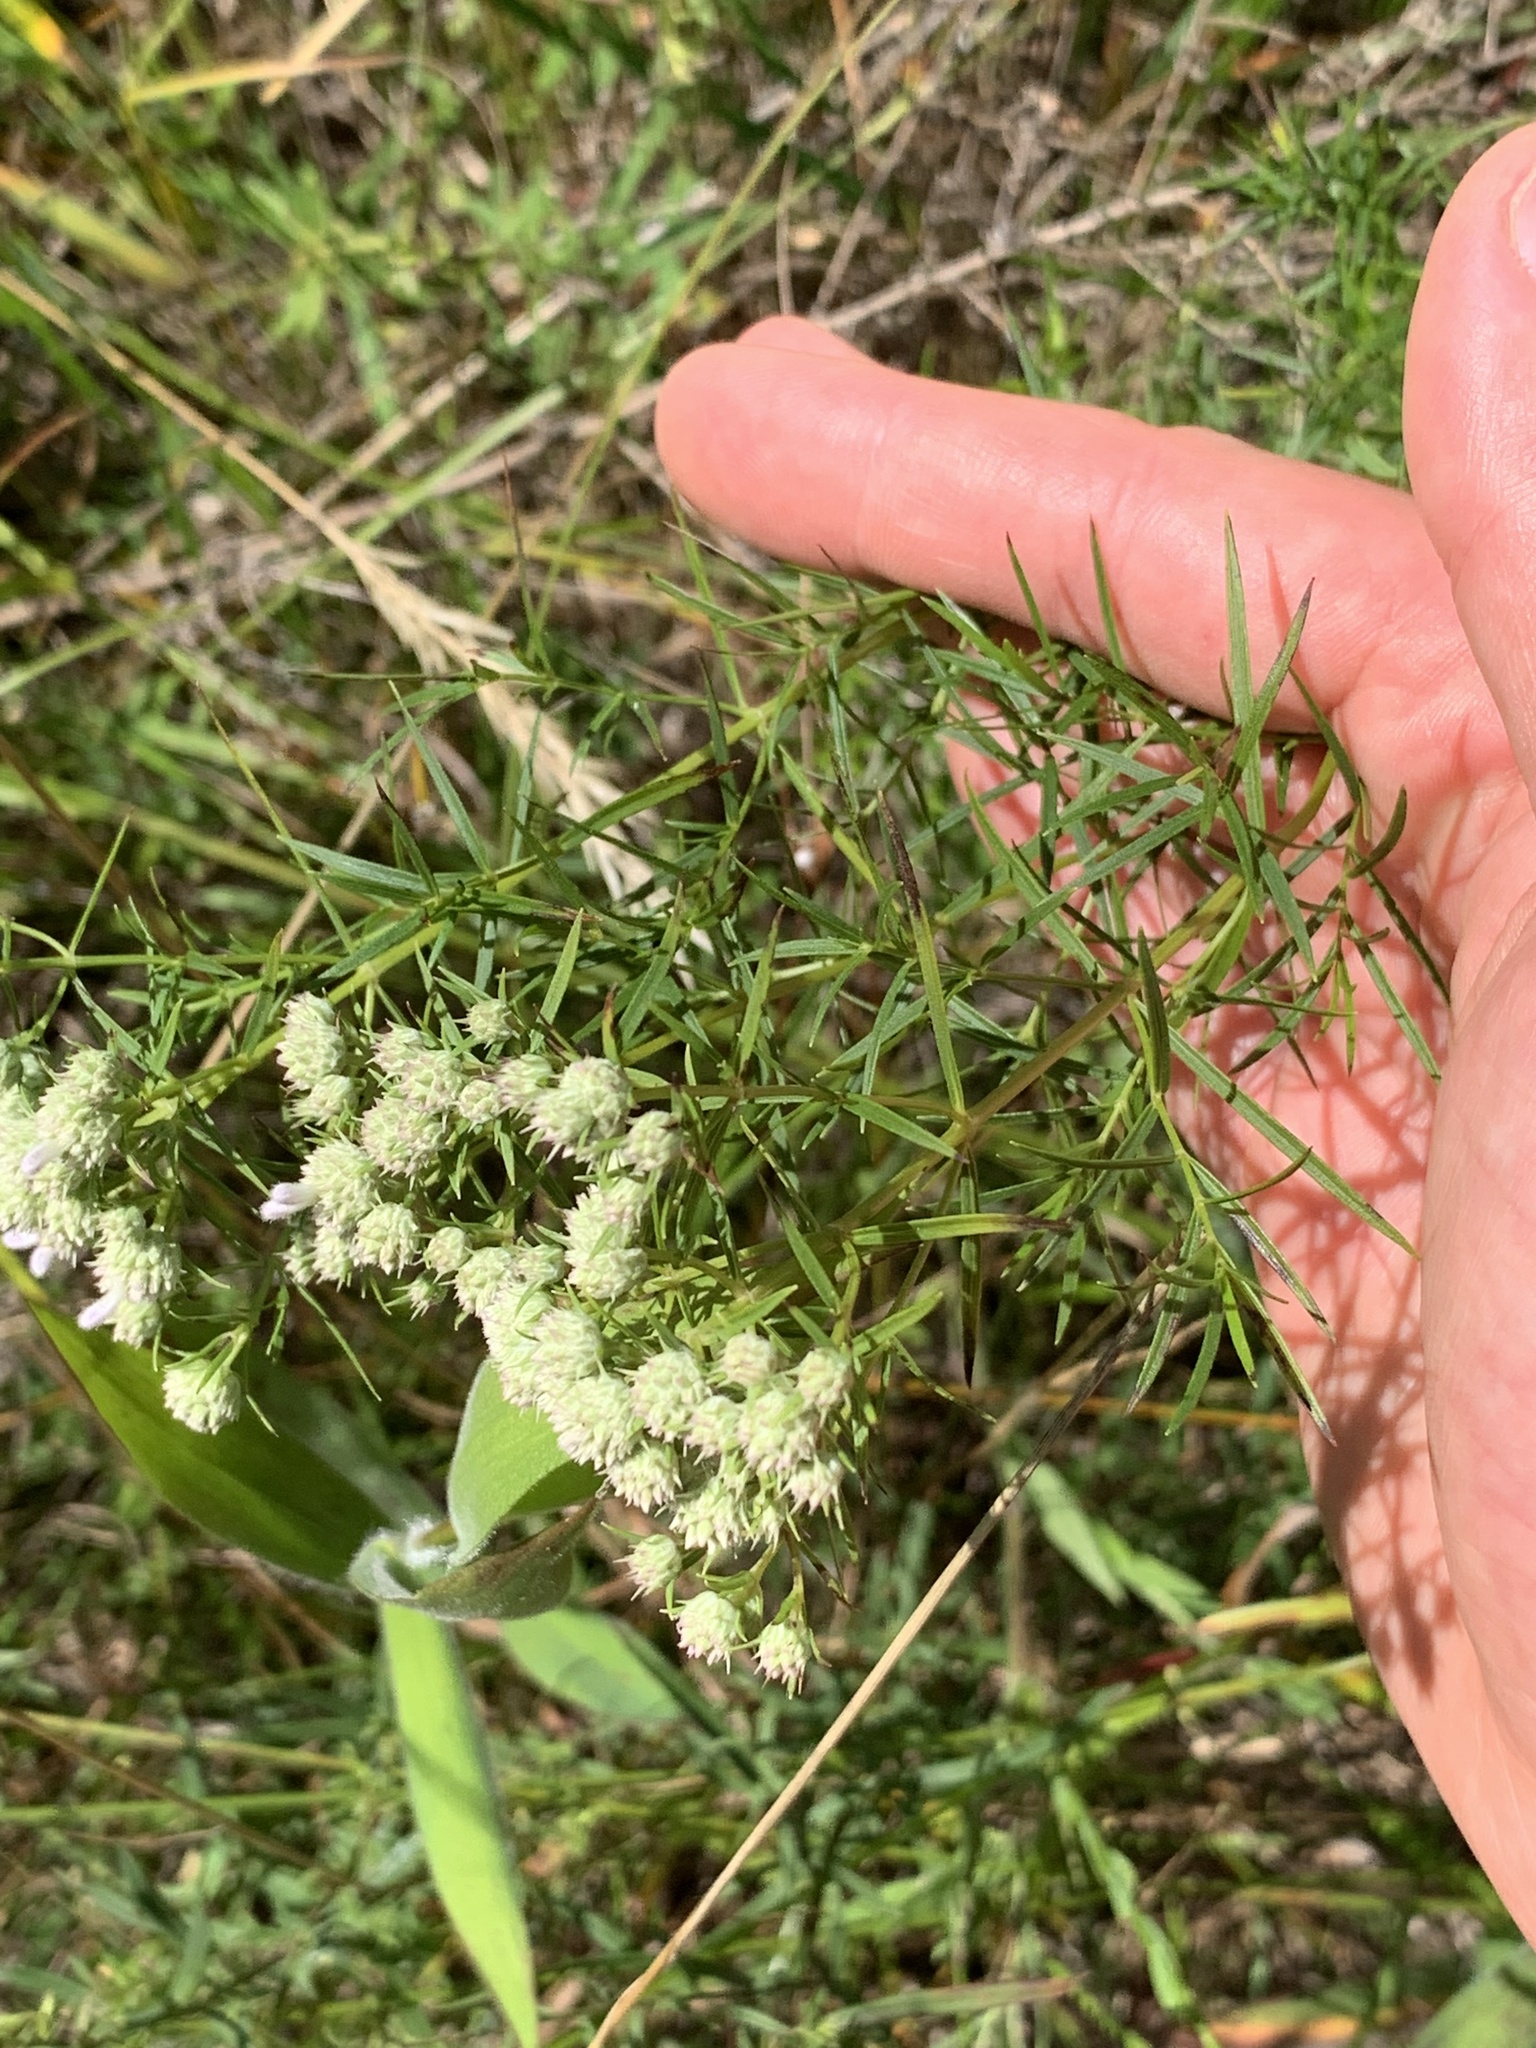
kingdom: Plantae
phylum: Tracheophyta
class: Magnoliopsida
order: Lamiales
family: Lamiaceae
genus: Pycnanthemum
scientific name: Pycnanthemum tenuifolium
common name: Narrow-leaf mountain-mint
